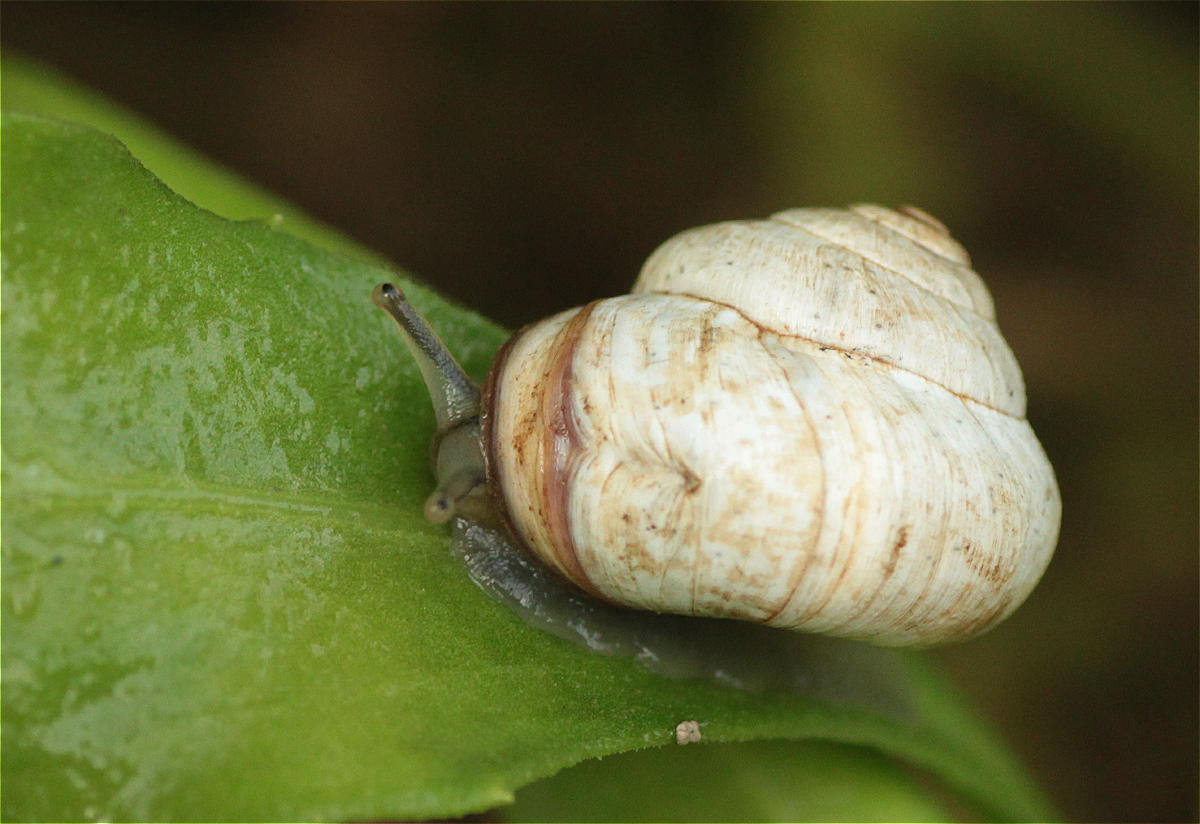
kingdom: Animalia
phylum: Mollusca
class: Gastropoda
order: Stylommatophora
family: Helicidae
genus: Theba
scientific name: Theba pisana
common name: White snail
